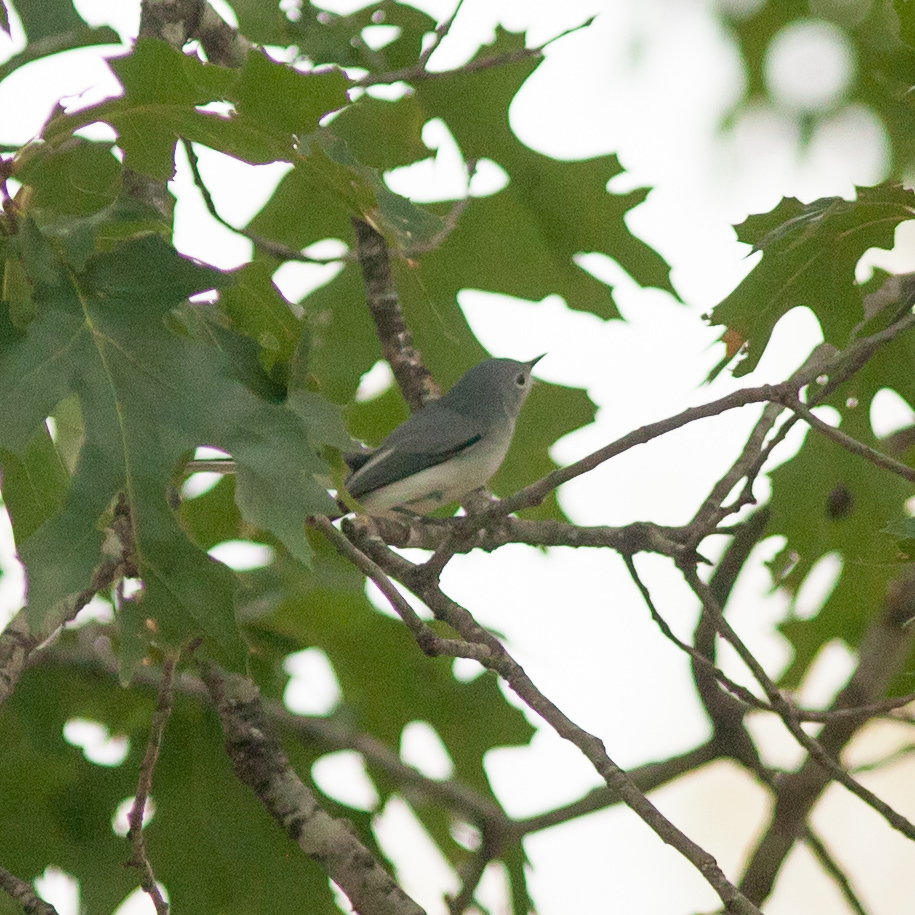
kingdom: Animalia
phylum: Chordata
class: Aves
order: Passeriformes
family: Polioptilidae
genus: Polioptila
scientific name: Polioptila caerulea
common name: Blue-gray gnatcatcher
